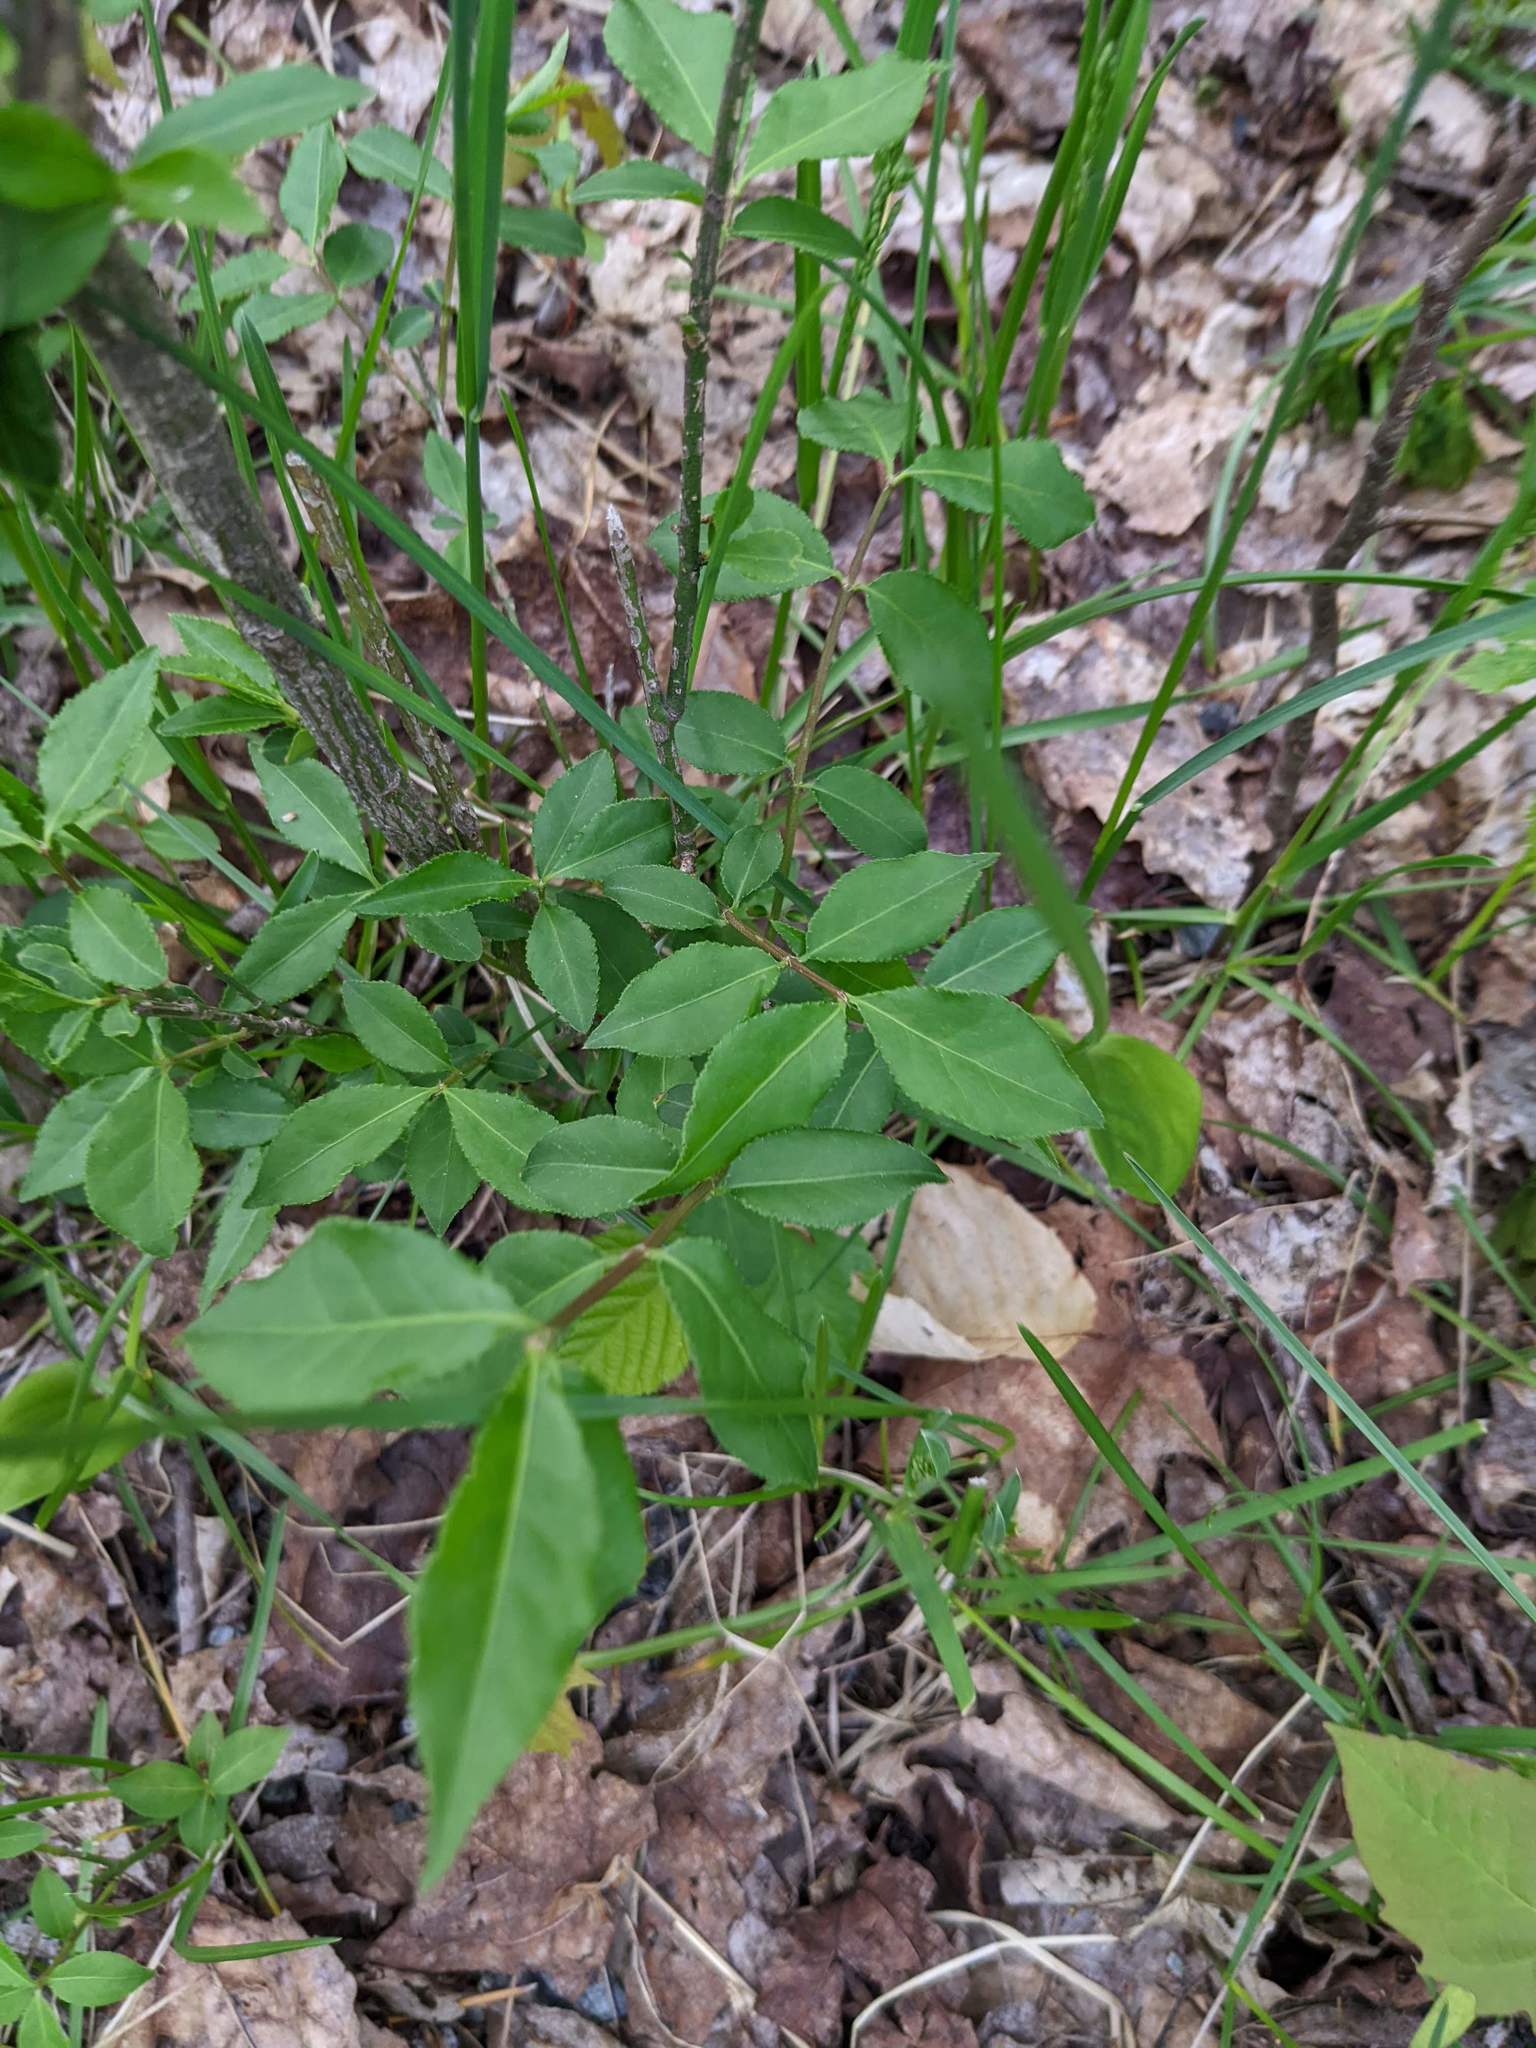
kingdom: Plantae
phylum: Tracheophyta
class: Magnoliopsida
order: Celastrales
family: Celastraceae
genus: Euonymus
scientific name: Euonymus alatus
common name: Winged euonymus
